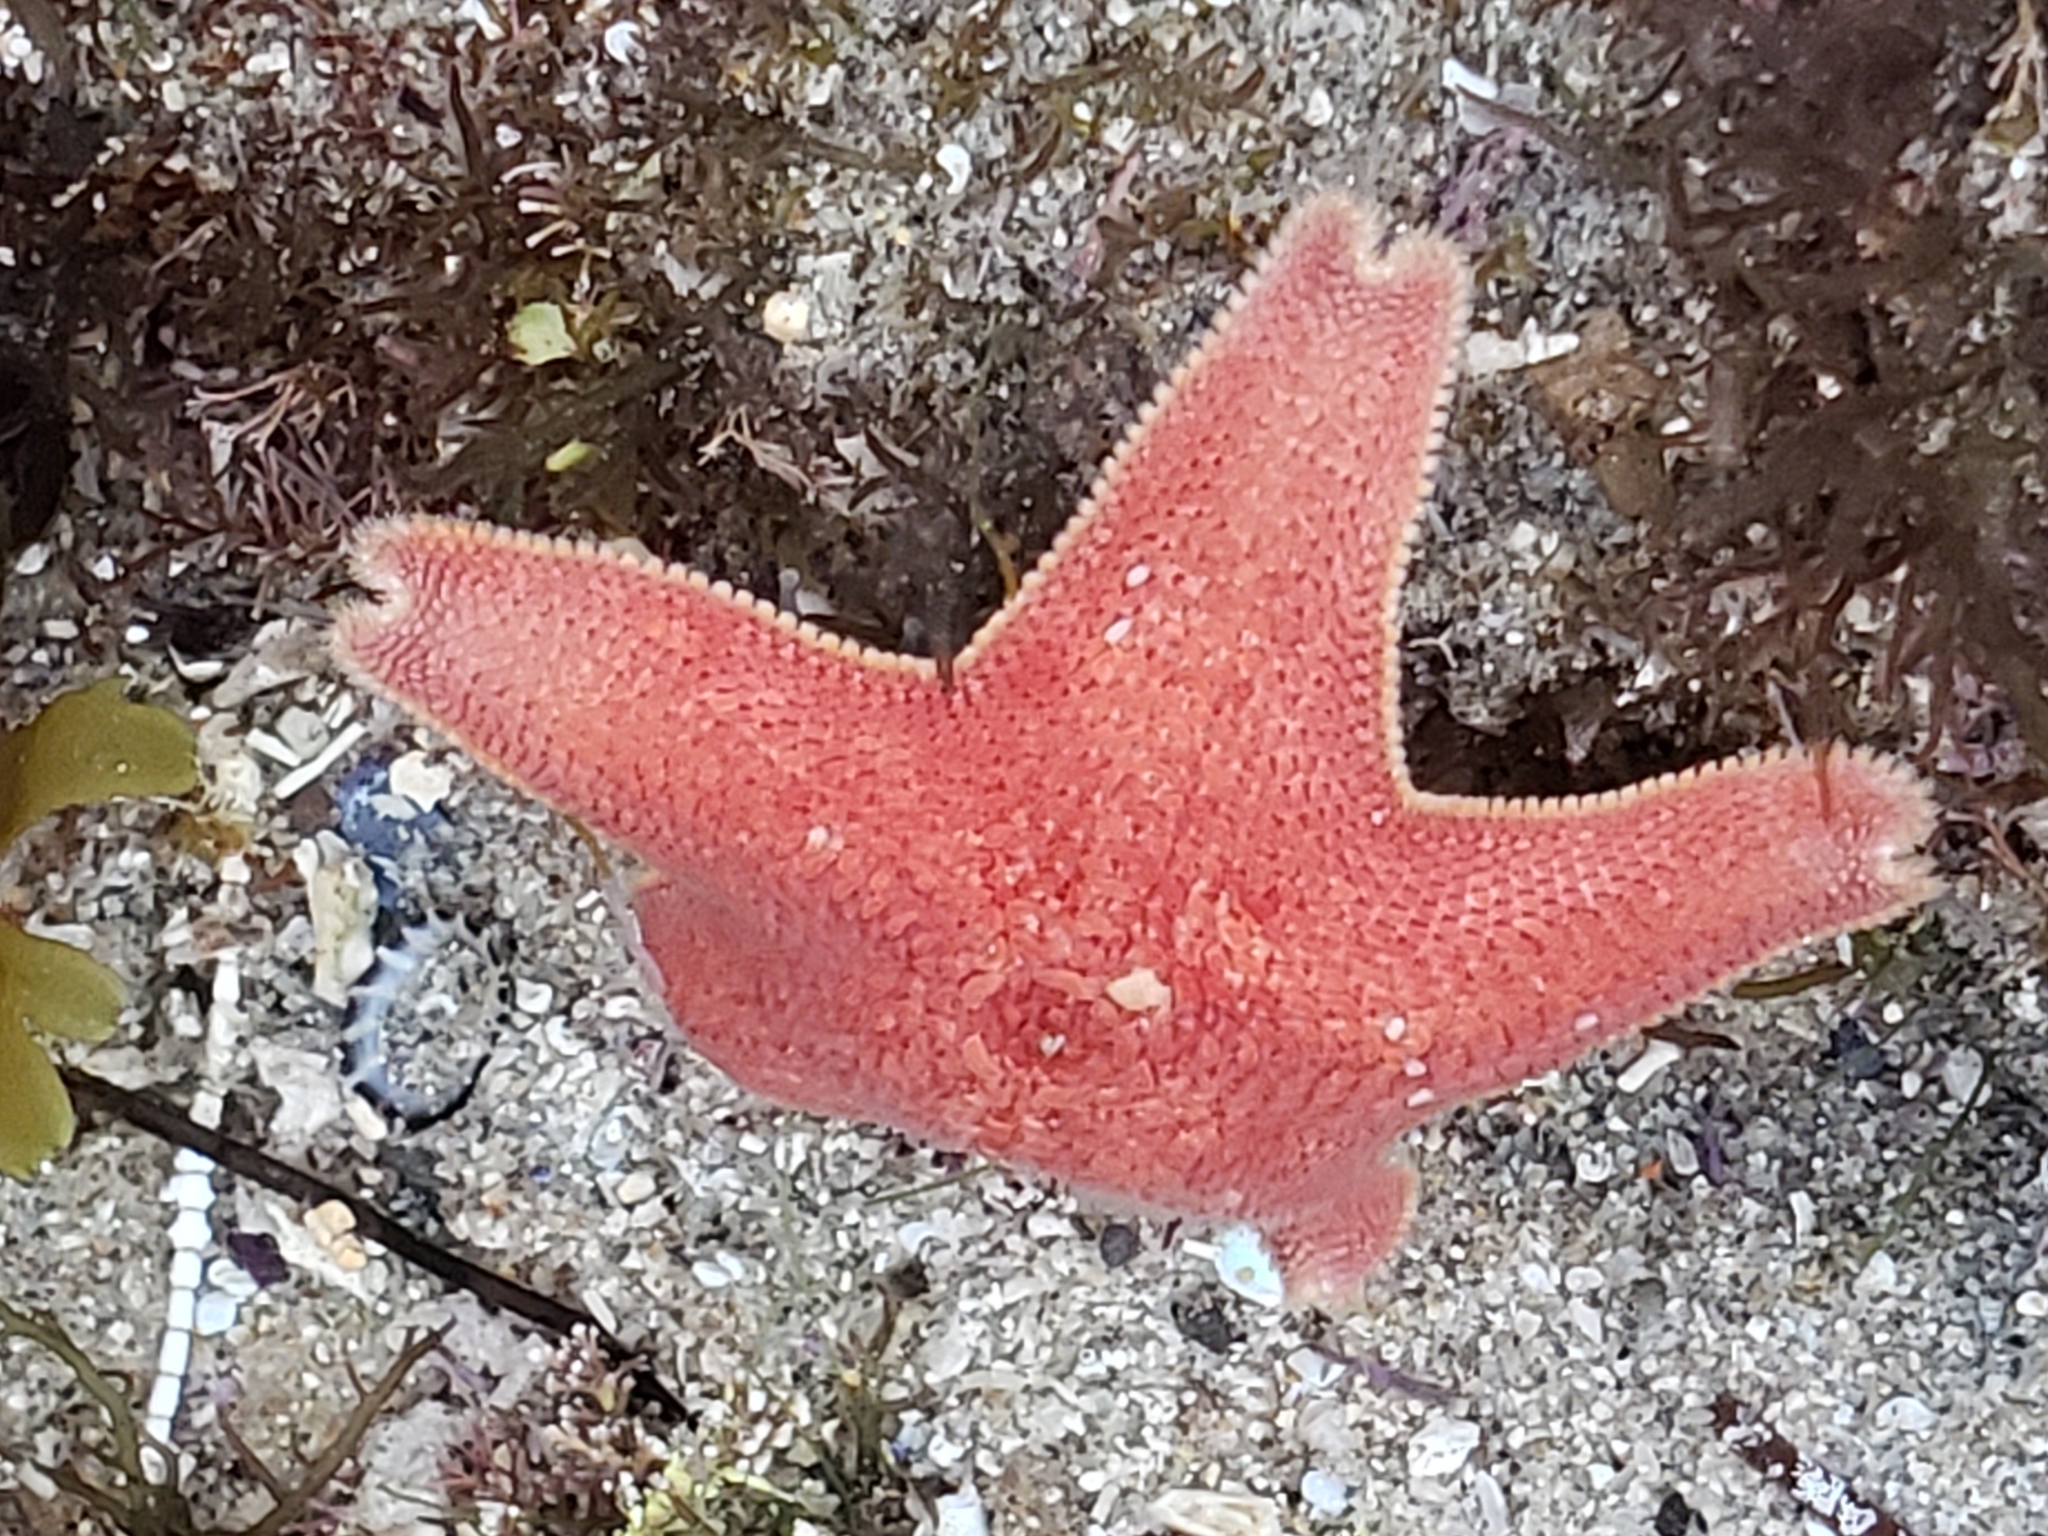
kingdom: Animalia
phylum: Echinodermata
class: Asteroidea
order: Valvatida
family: Asterinidae
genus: Patiria
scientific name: Patiria miniata
